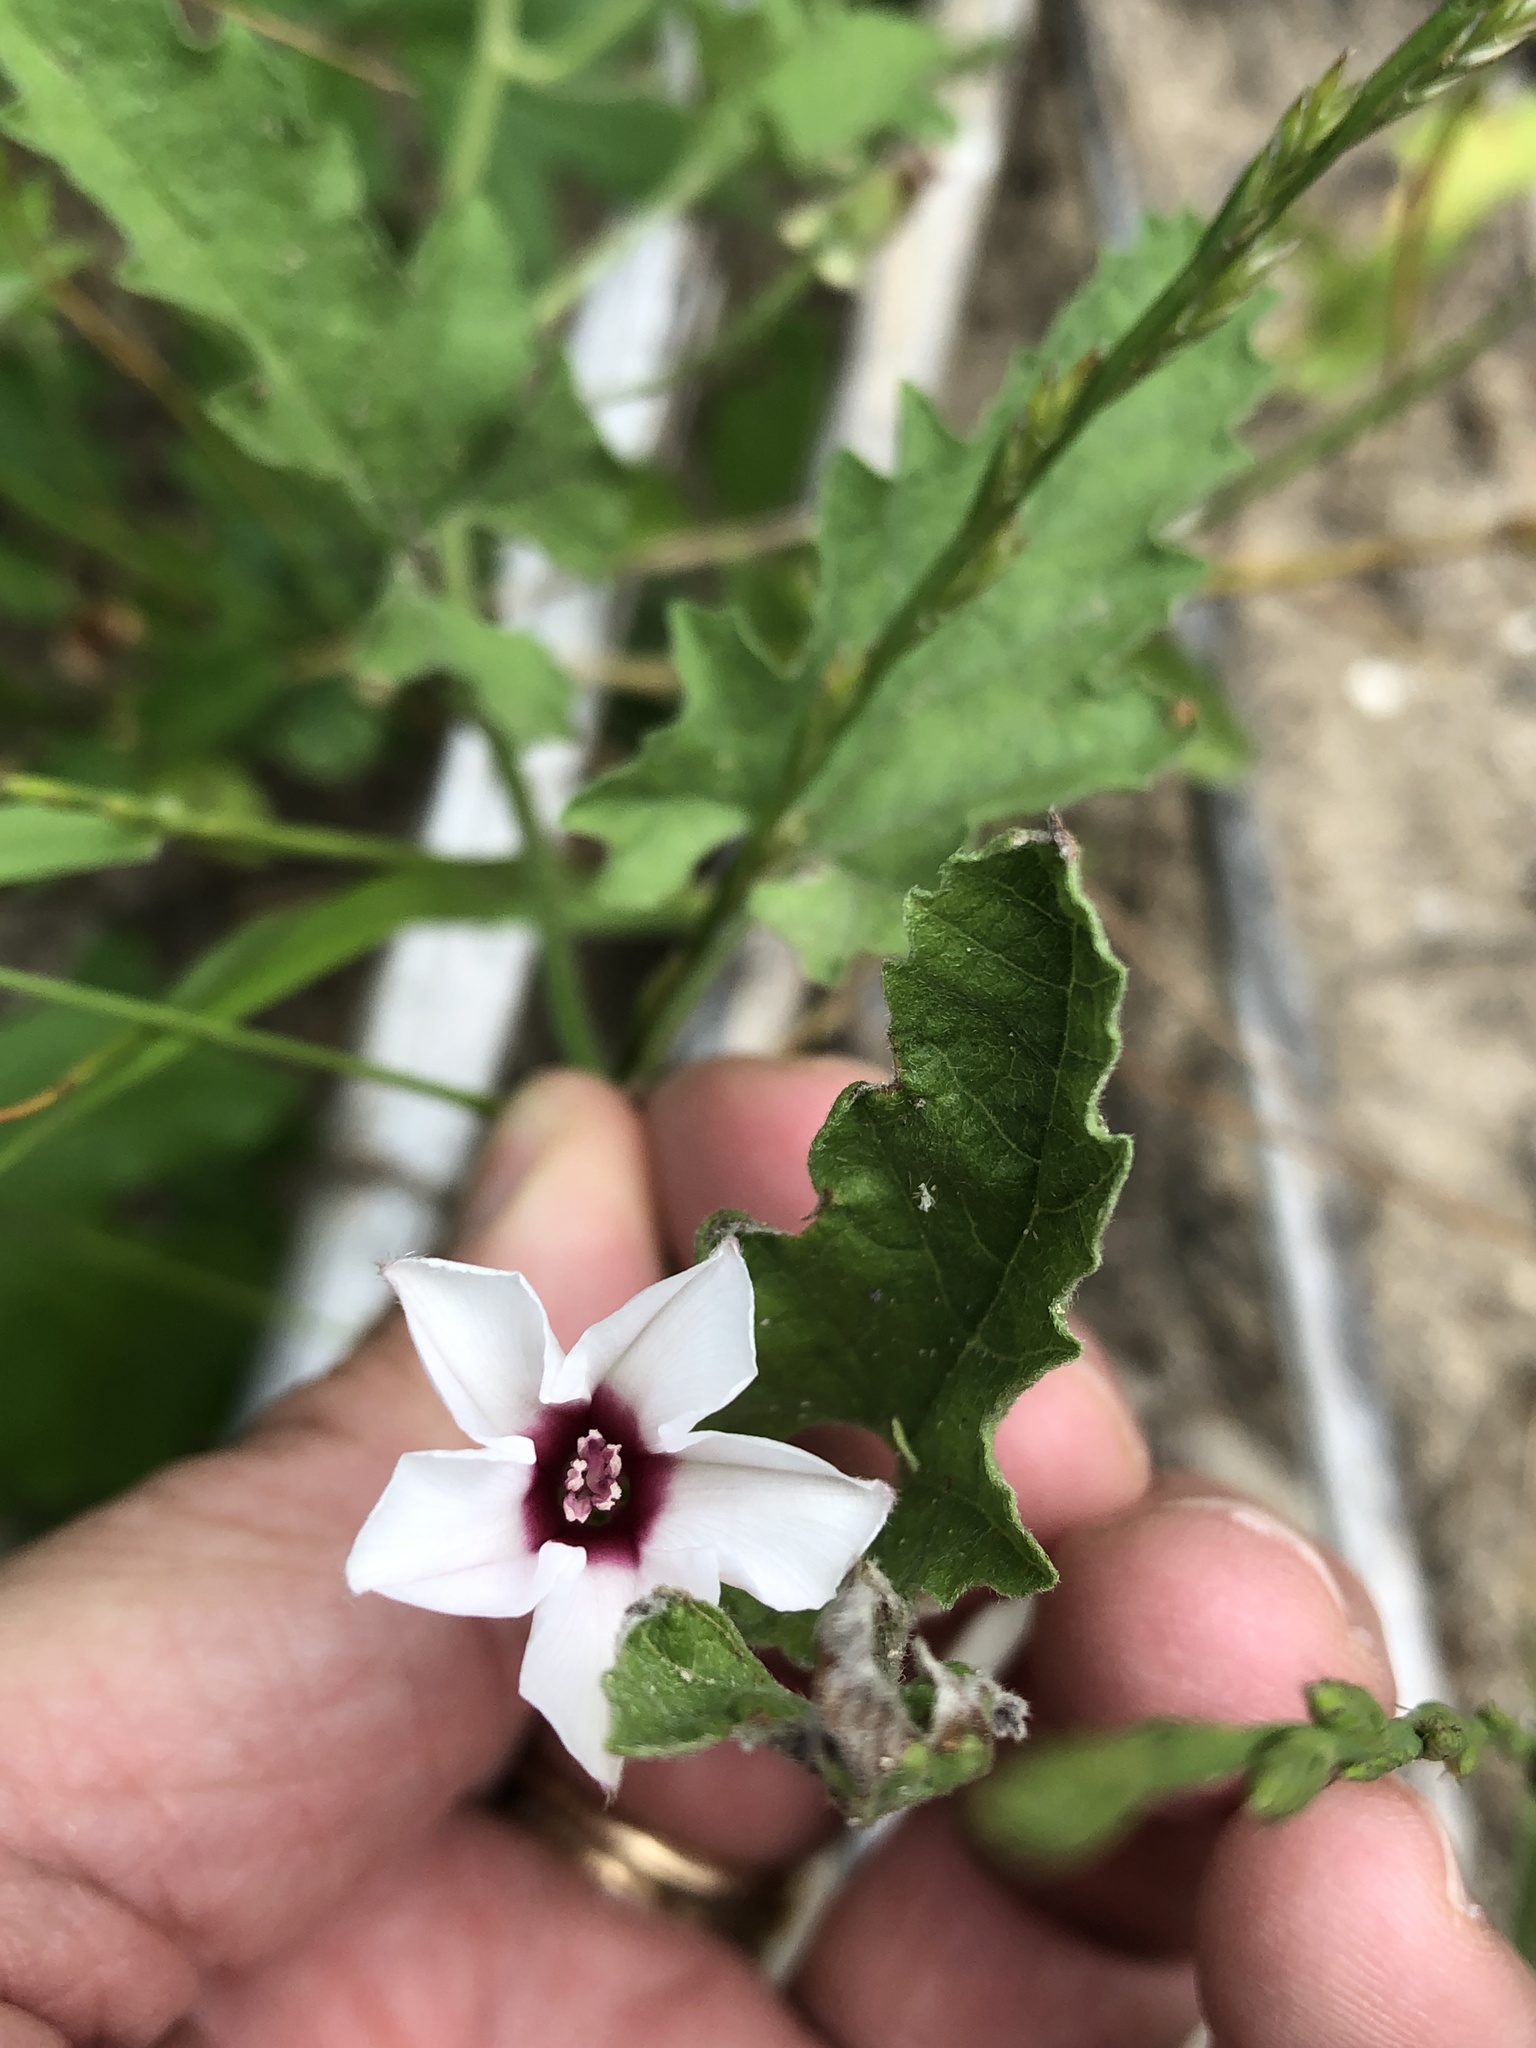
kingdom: Plantae
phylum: Tracheophyta
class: Magnoliopsida
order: Solanales
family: Convolvulaceae
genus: Convolvulus
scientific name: Convolvulus equitans
